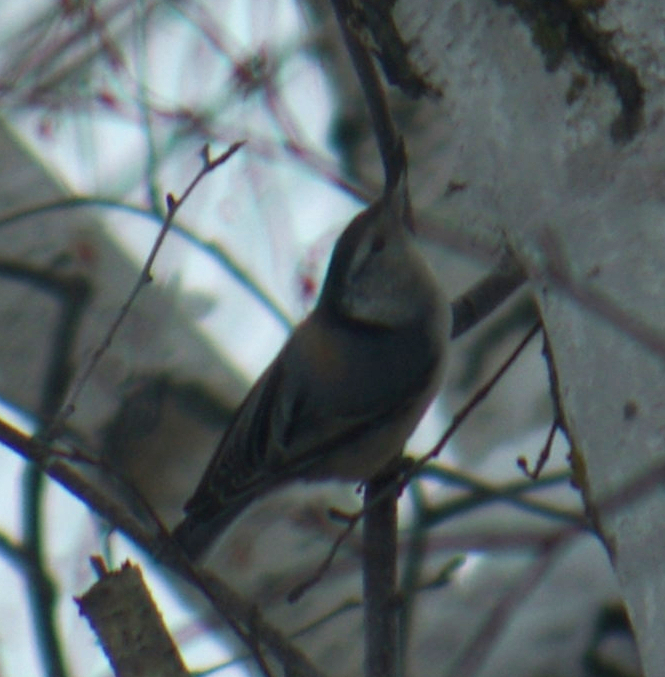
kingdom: Animalia
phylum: Chordata
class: Aves
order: Passeriformes
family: Sittidae
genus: Sitta
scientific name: Sitta carolinensis
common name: White-breasted nuthatch
